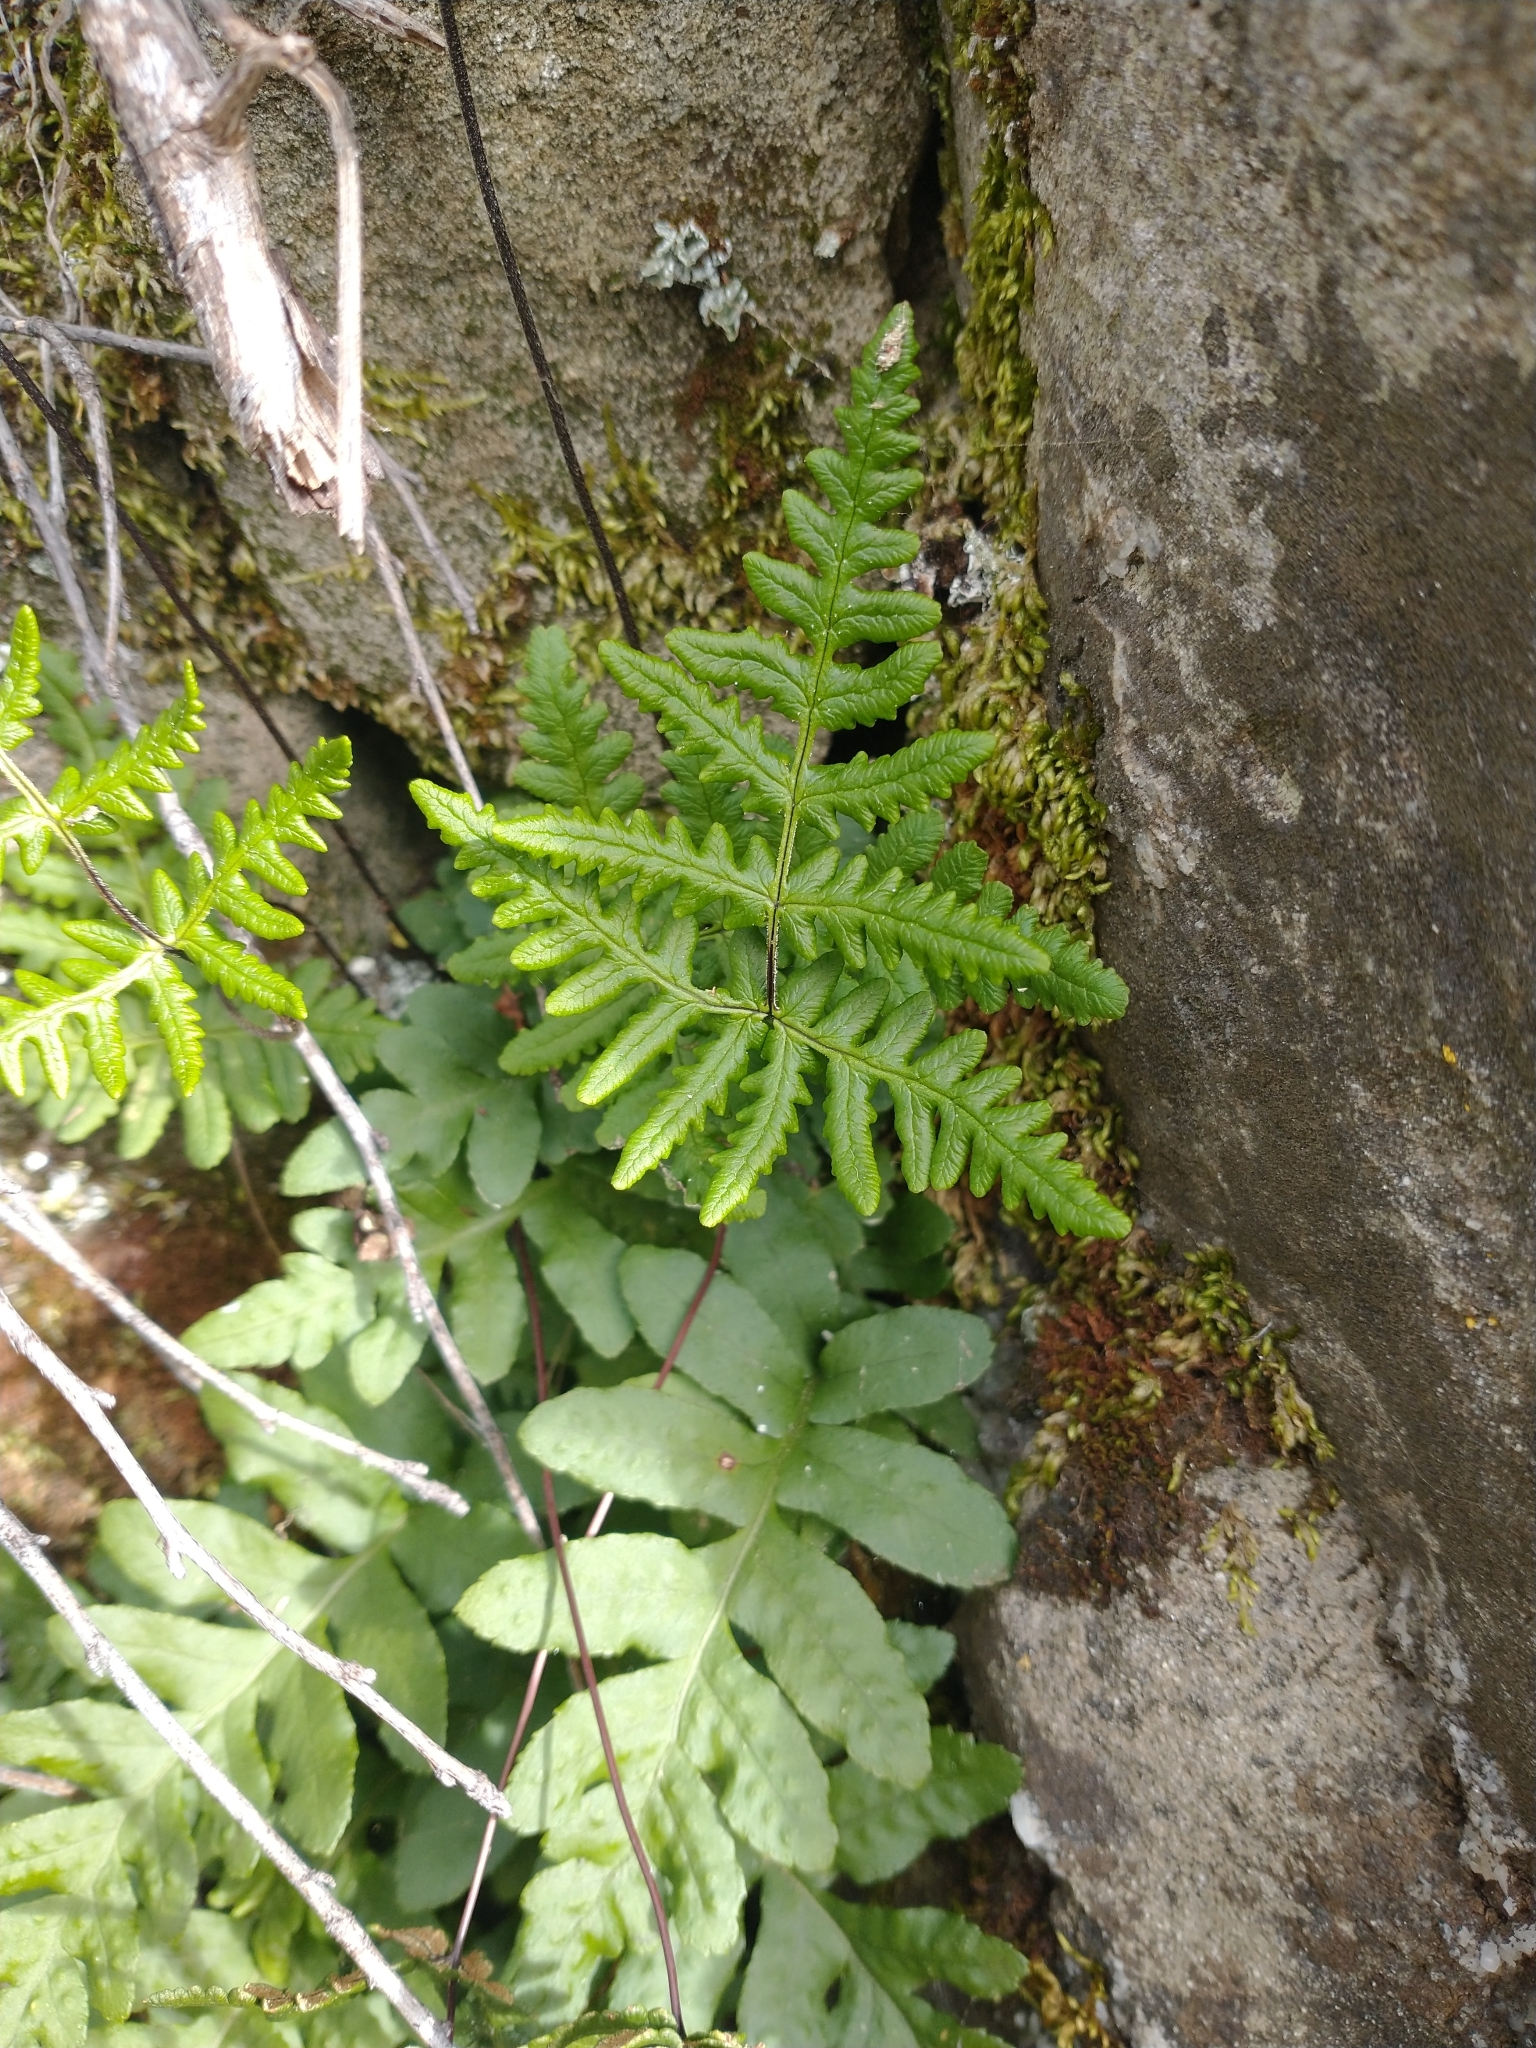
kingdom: Plantae
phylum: Tracheophyta
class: Polypodiopsida
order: Polypodiales
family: Pteridaceae
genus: Pentagramma
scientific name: Pentagramma triangularis
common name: Gold fern
